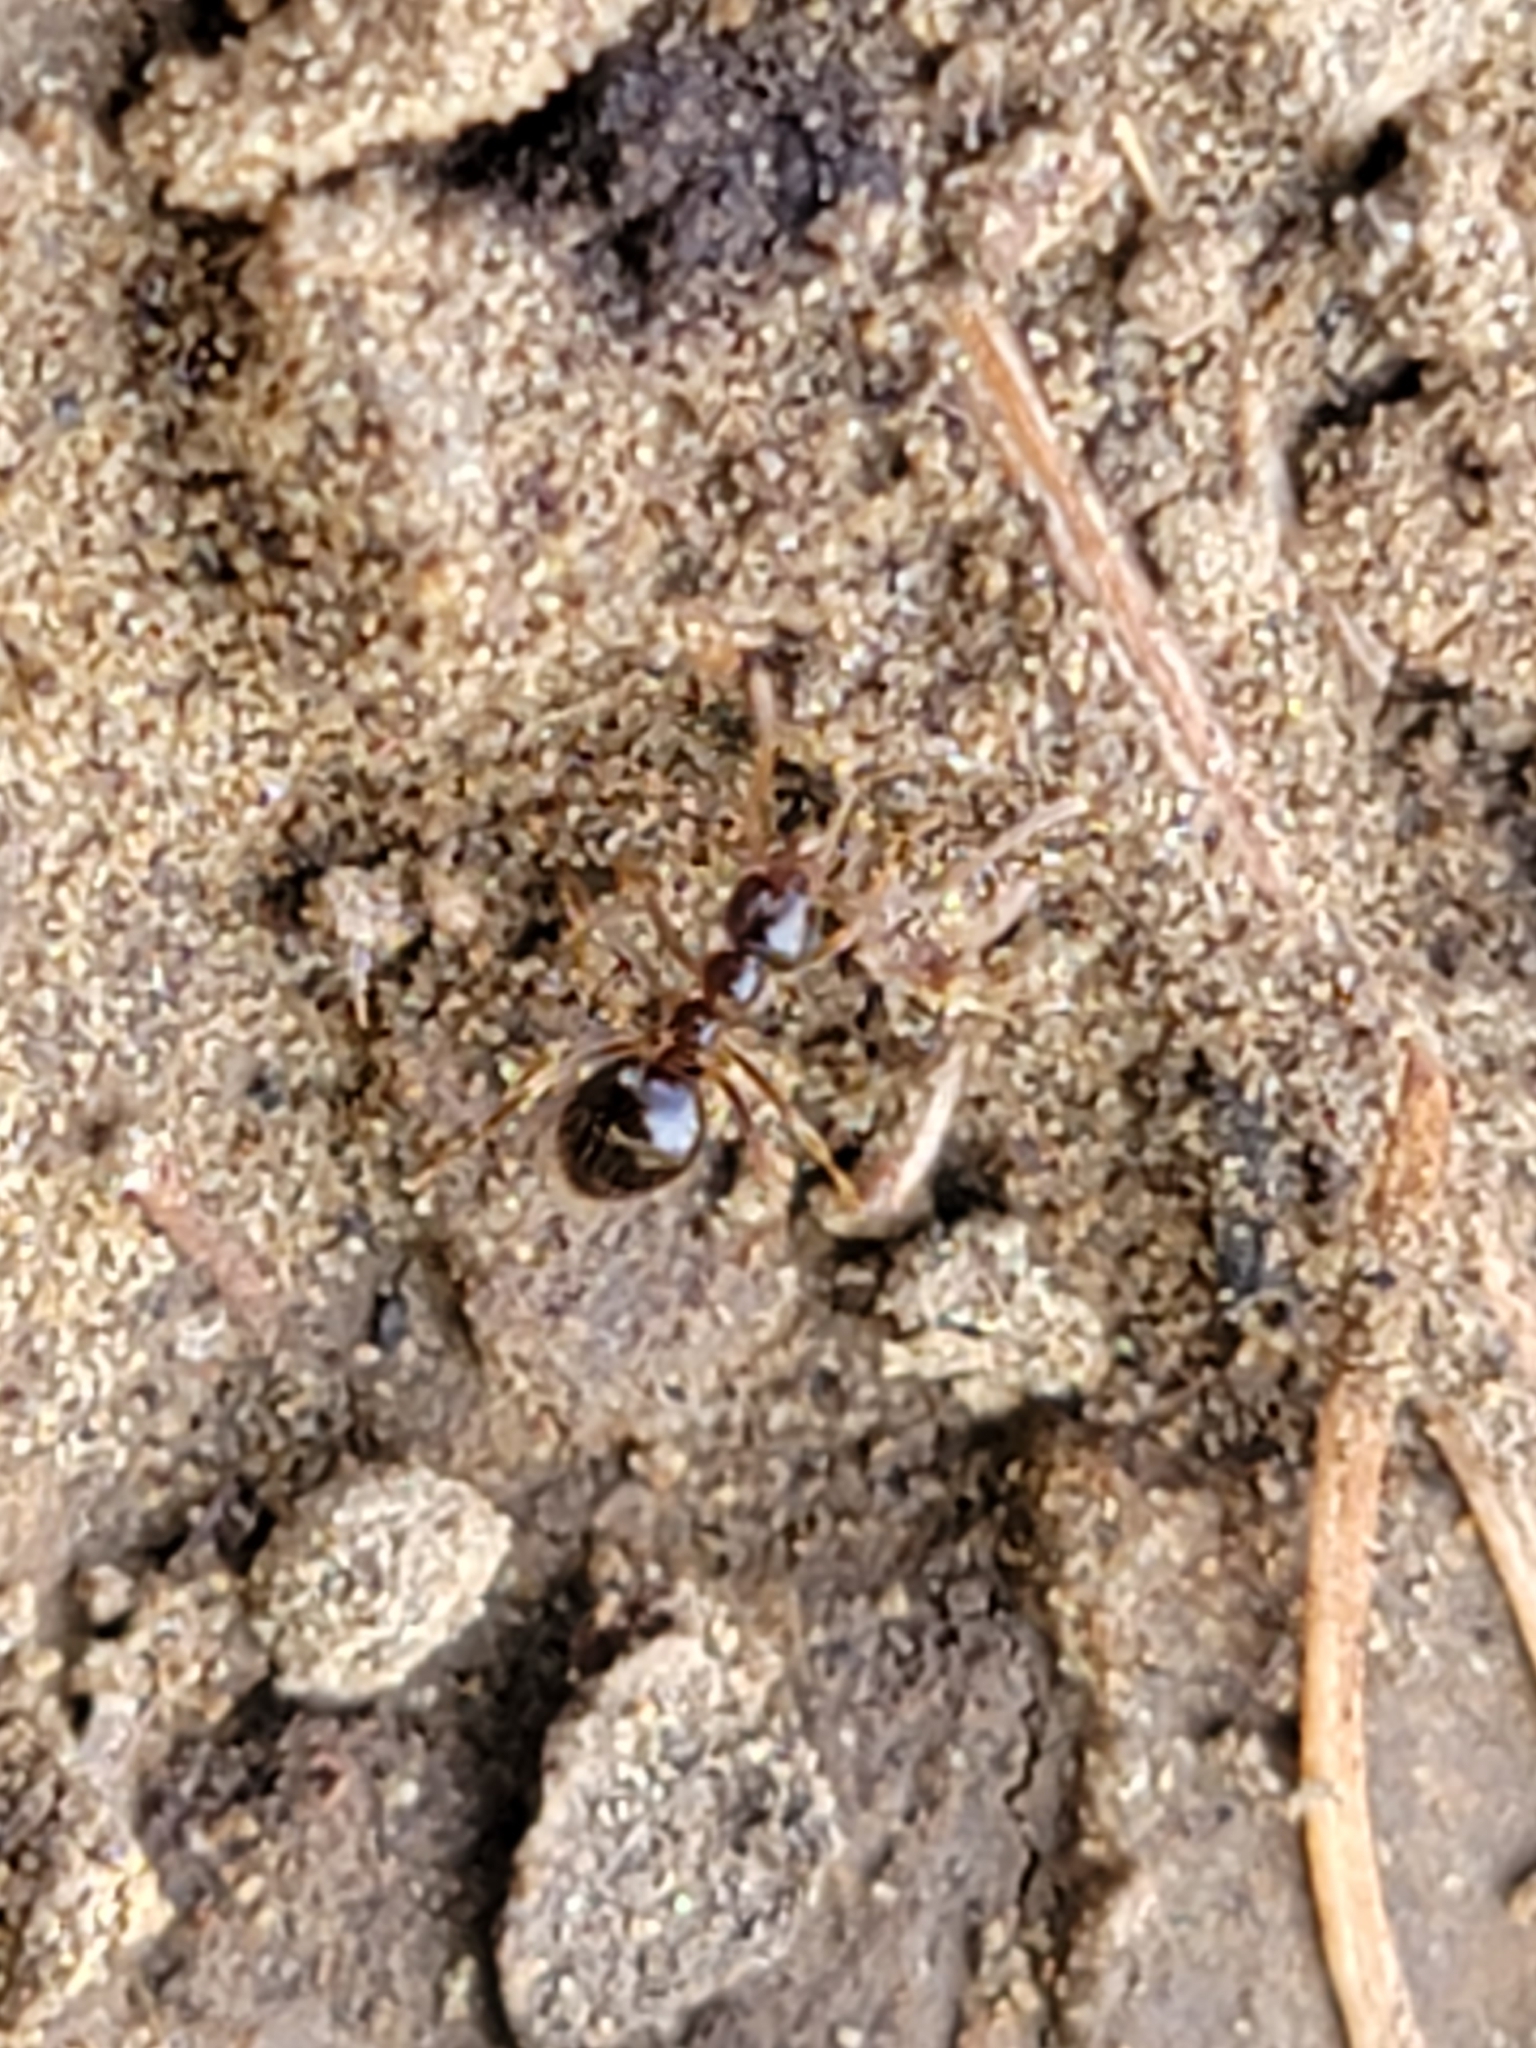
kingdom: Animalia
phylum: Arthropoda
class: Insecta
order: Hymenoptera
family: Formicidae
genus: Prenolepis
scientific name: Prenolepis imparis
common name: Small honey ant
